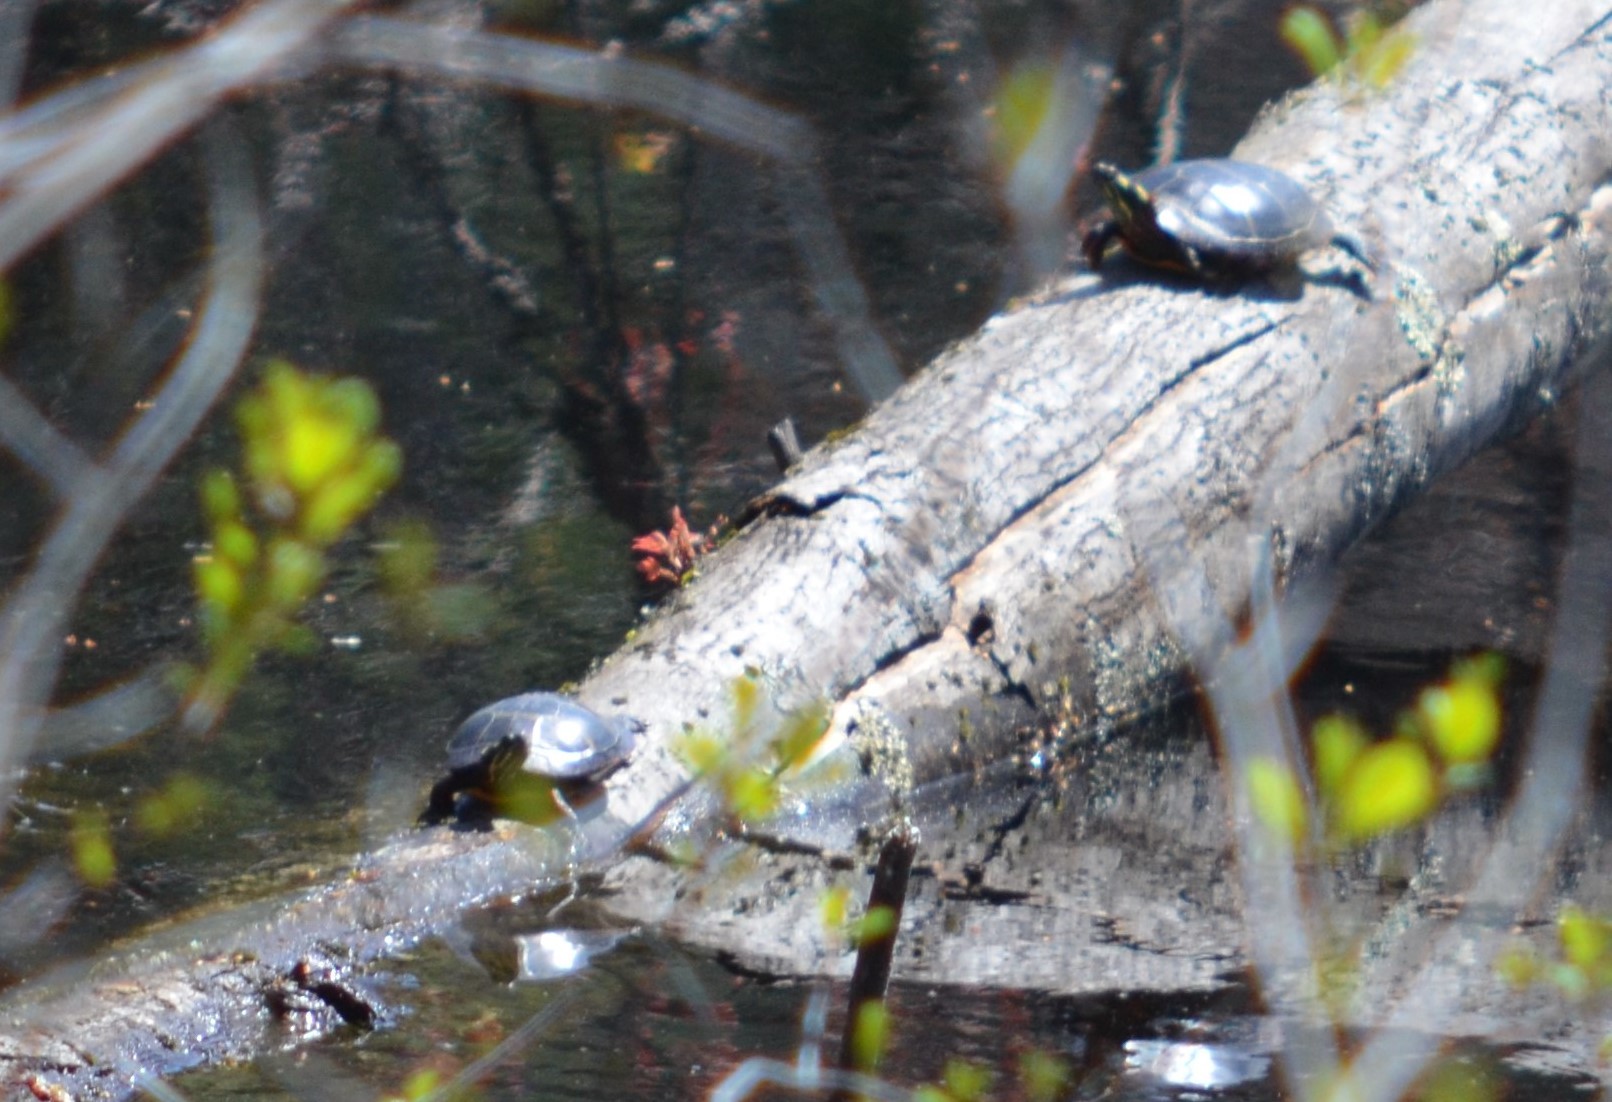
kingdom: Animalia
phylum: Chordata
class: Testudines
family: Emydidae
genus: Chrysemys
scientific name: Chrysemys picta
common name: Painted turtle
